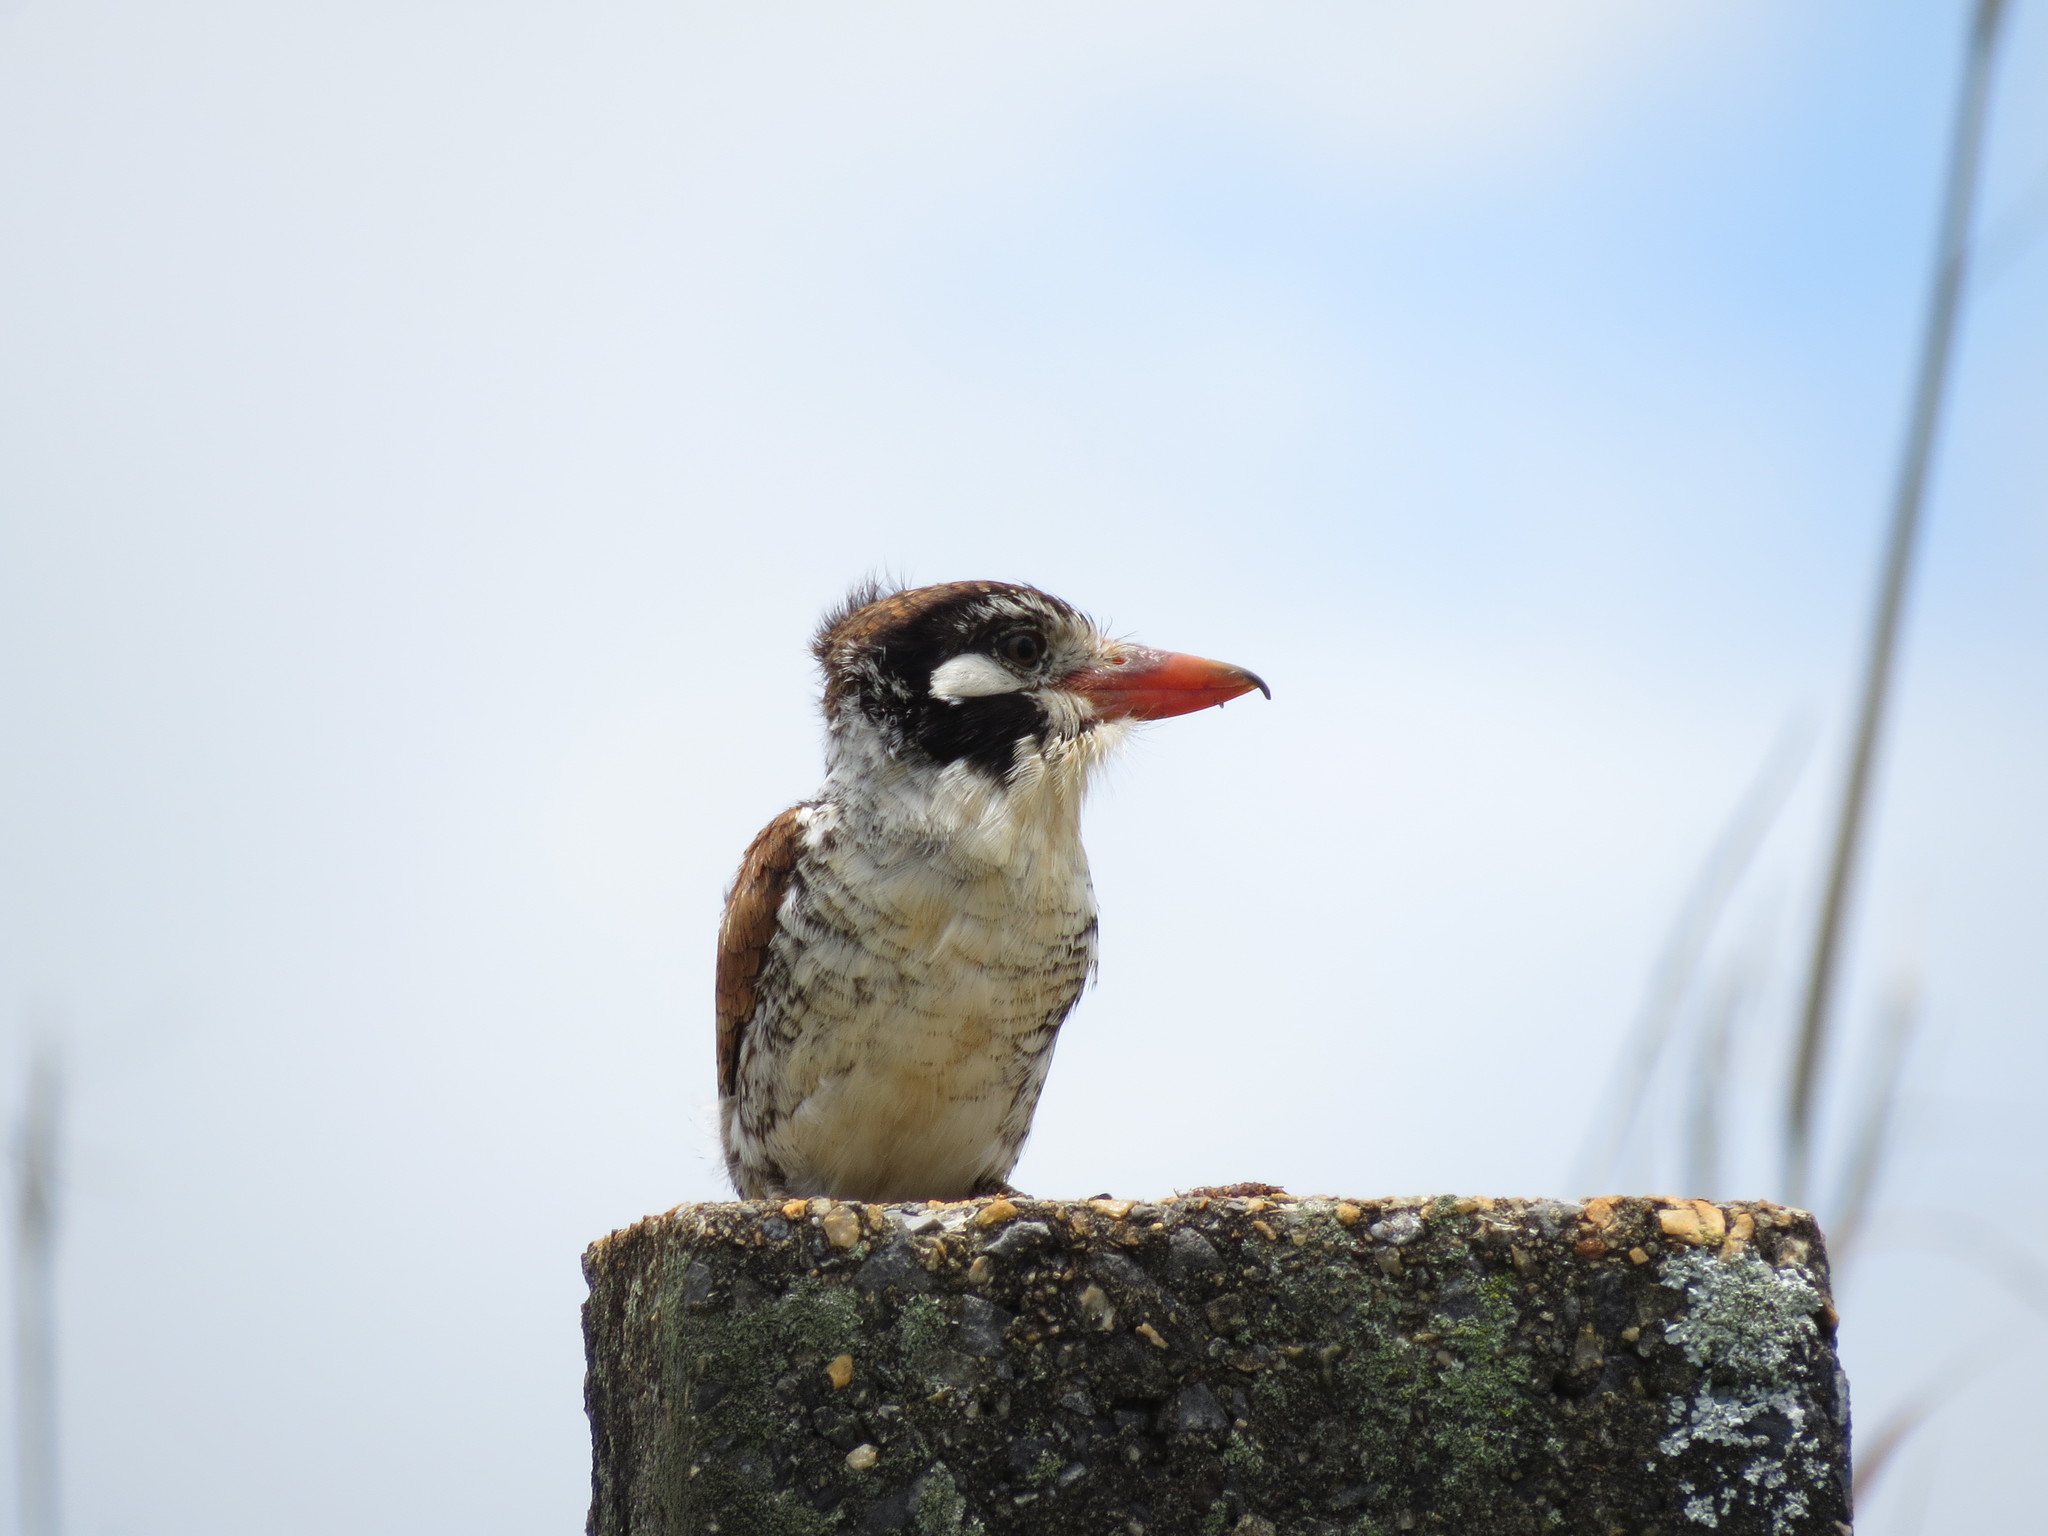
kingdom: Animalia
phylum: Chordata
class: Aves
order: Piciformes
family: Bucconidae
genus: Nystalus
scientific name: Nystalus chacuru
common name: White-eared puffbird
